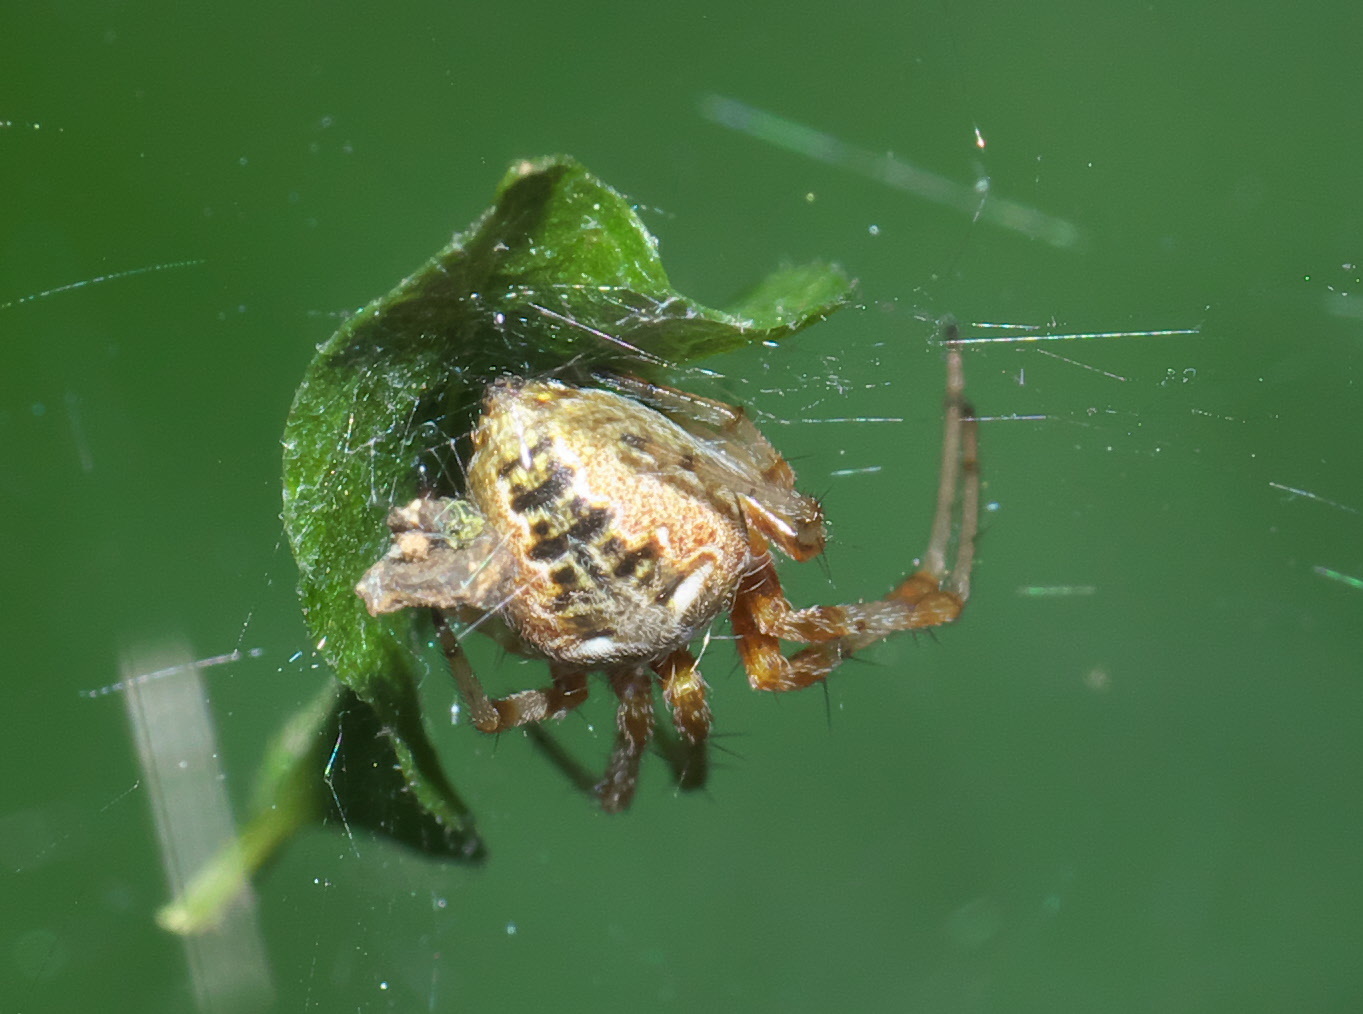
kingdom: Animalia
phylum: Arthropoda
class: Arachnida
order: Araneae
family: Araneidae
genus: Metepeira
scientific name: Metepeira labyrinthea
